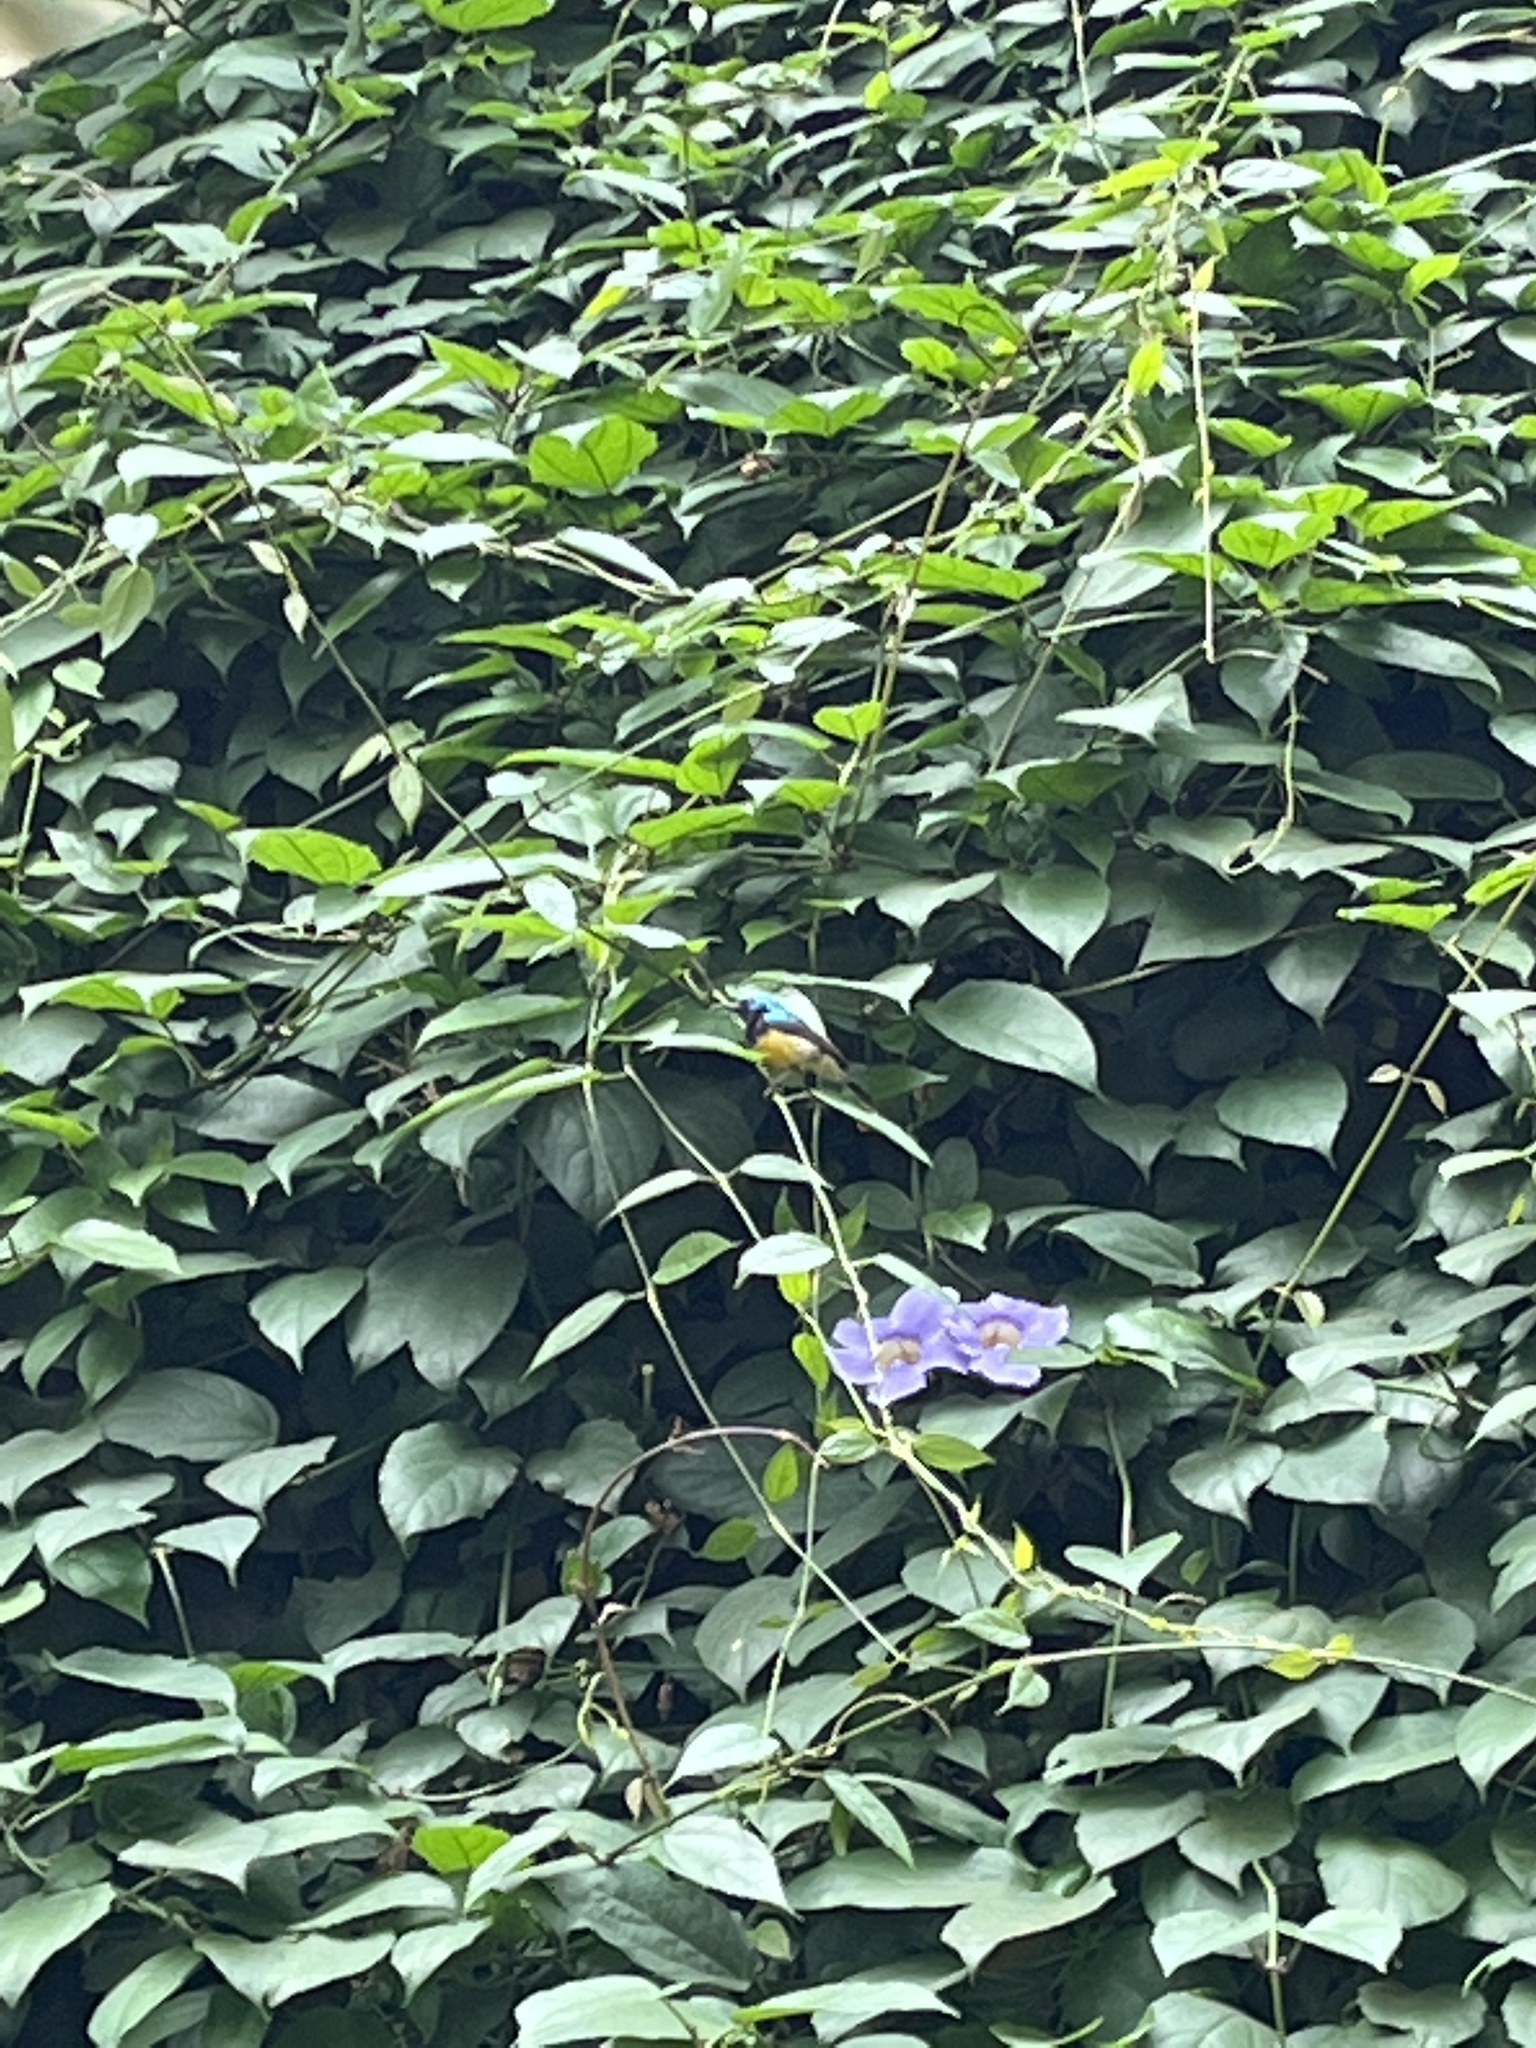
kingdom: Animalia
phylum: Chordata
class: Aves
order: Passeriformes
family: Nectariniidae
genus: Cinnyris
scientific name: Cinnyris venustus
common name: Variable sunbird
